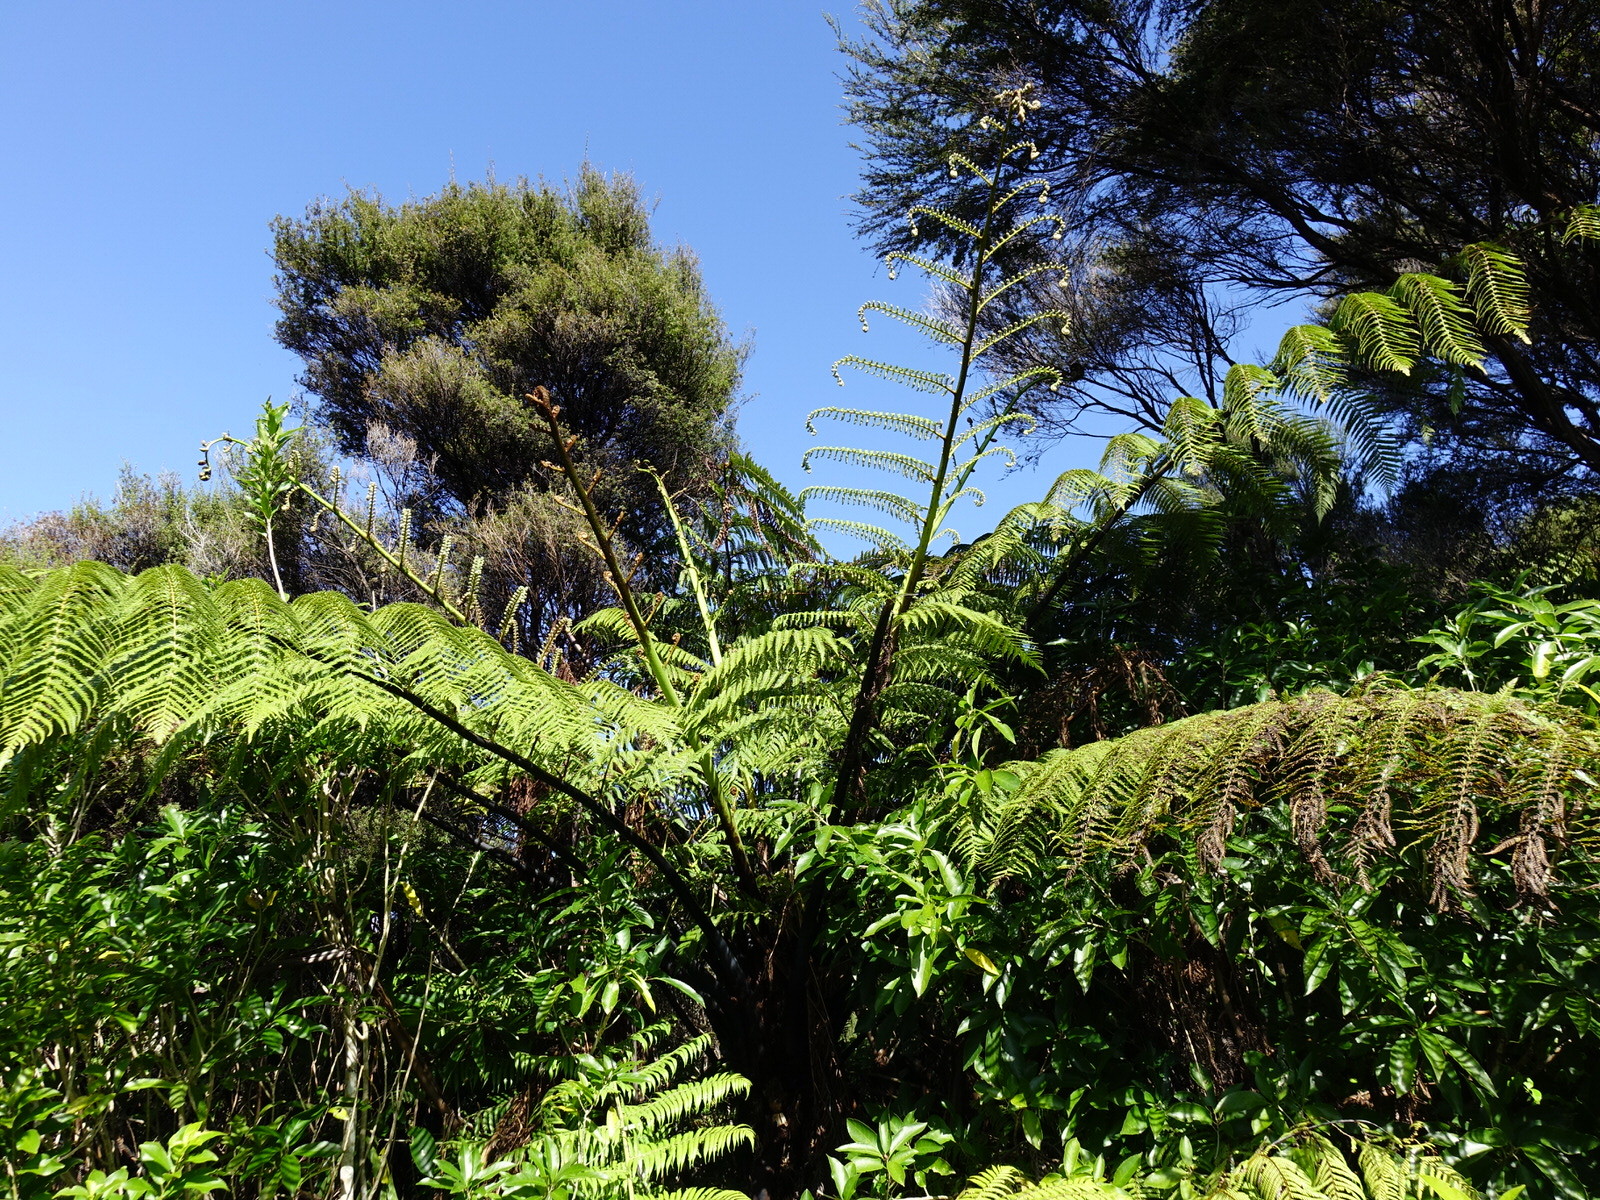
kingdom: Plantae
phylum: Tracheophyta
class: Polypodiopsida
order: Cyatheales
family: Cyatheaceae
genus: Sphaeropteris
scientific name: Sphaeropteris medullaris
